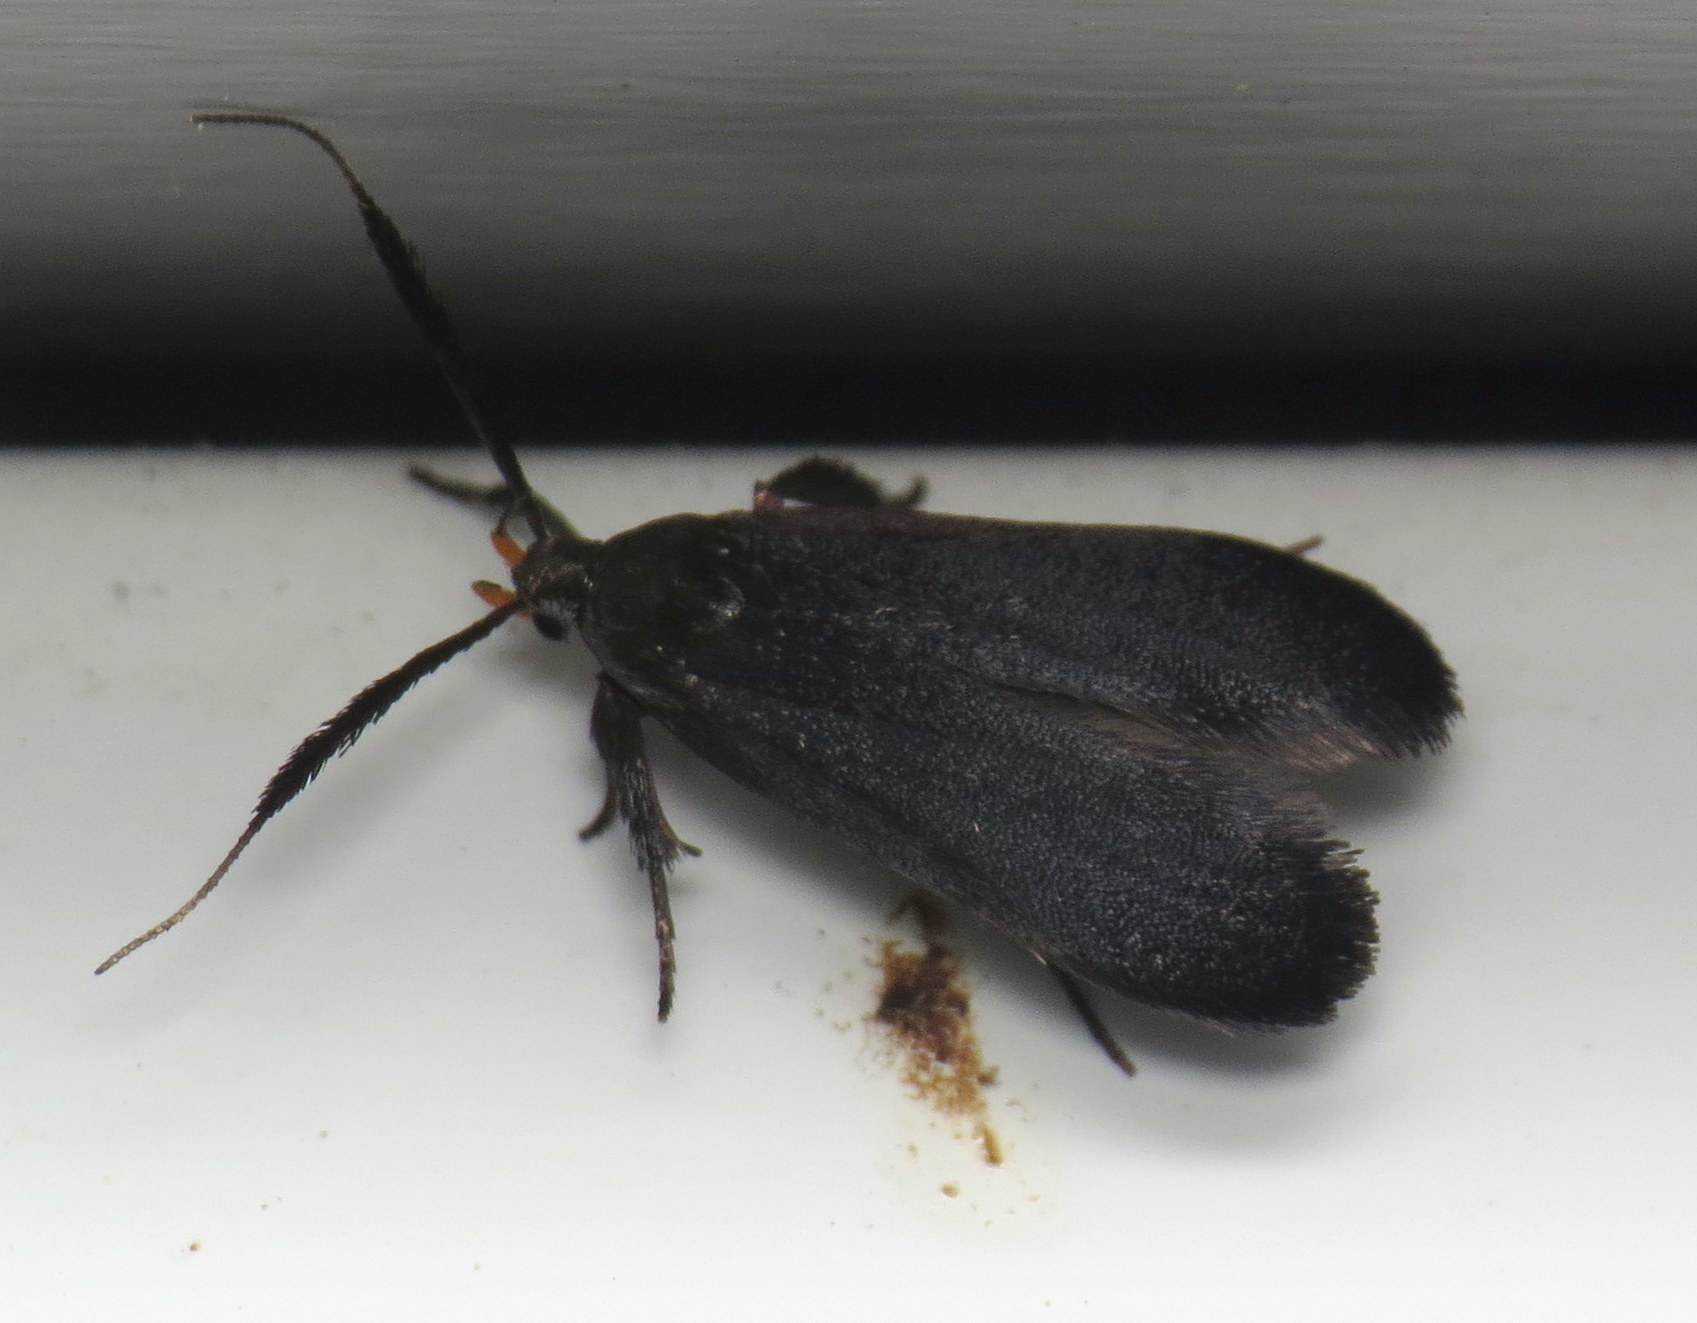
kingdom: Animalia
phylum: Arthropoda
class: Insecta
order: Lepidoptera
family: Gelechiidae
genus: Dichomeris
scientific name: Dichomeris nonstrigella
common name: Little devil moth
